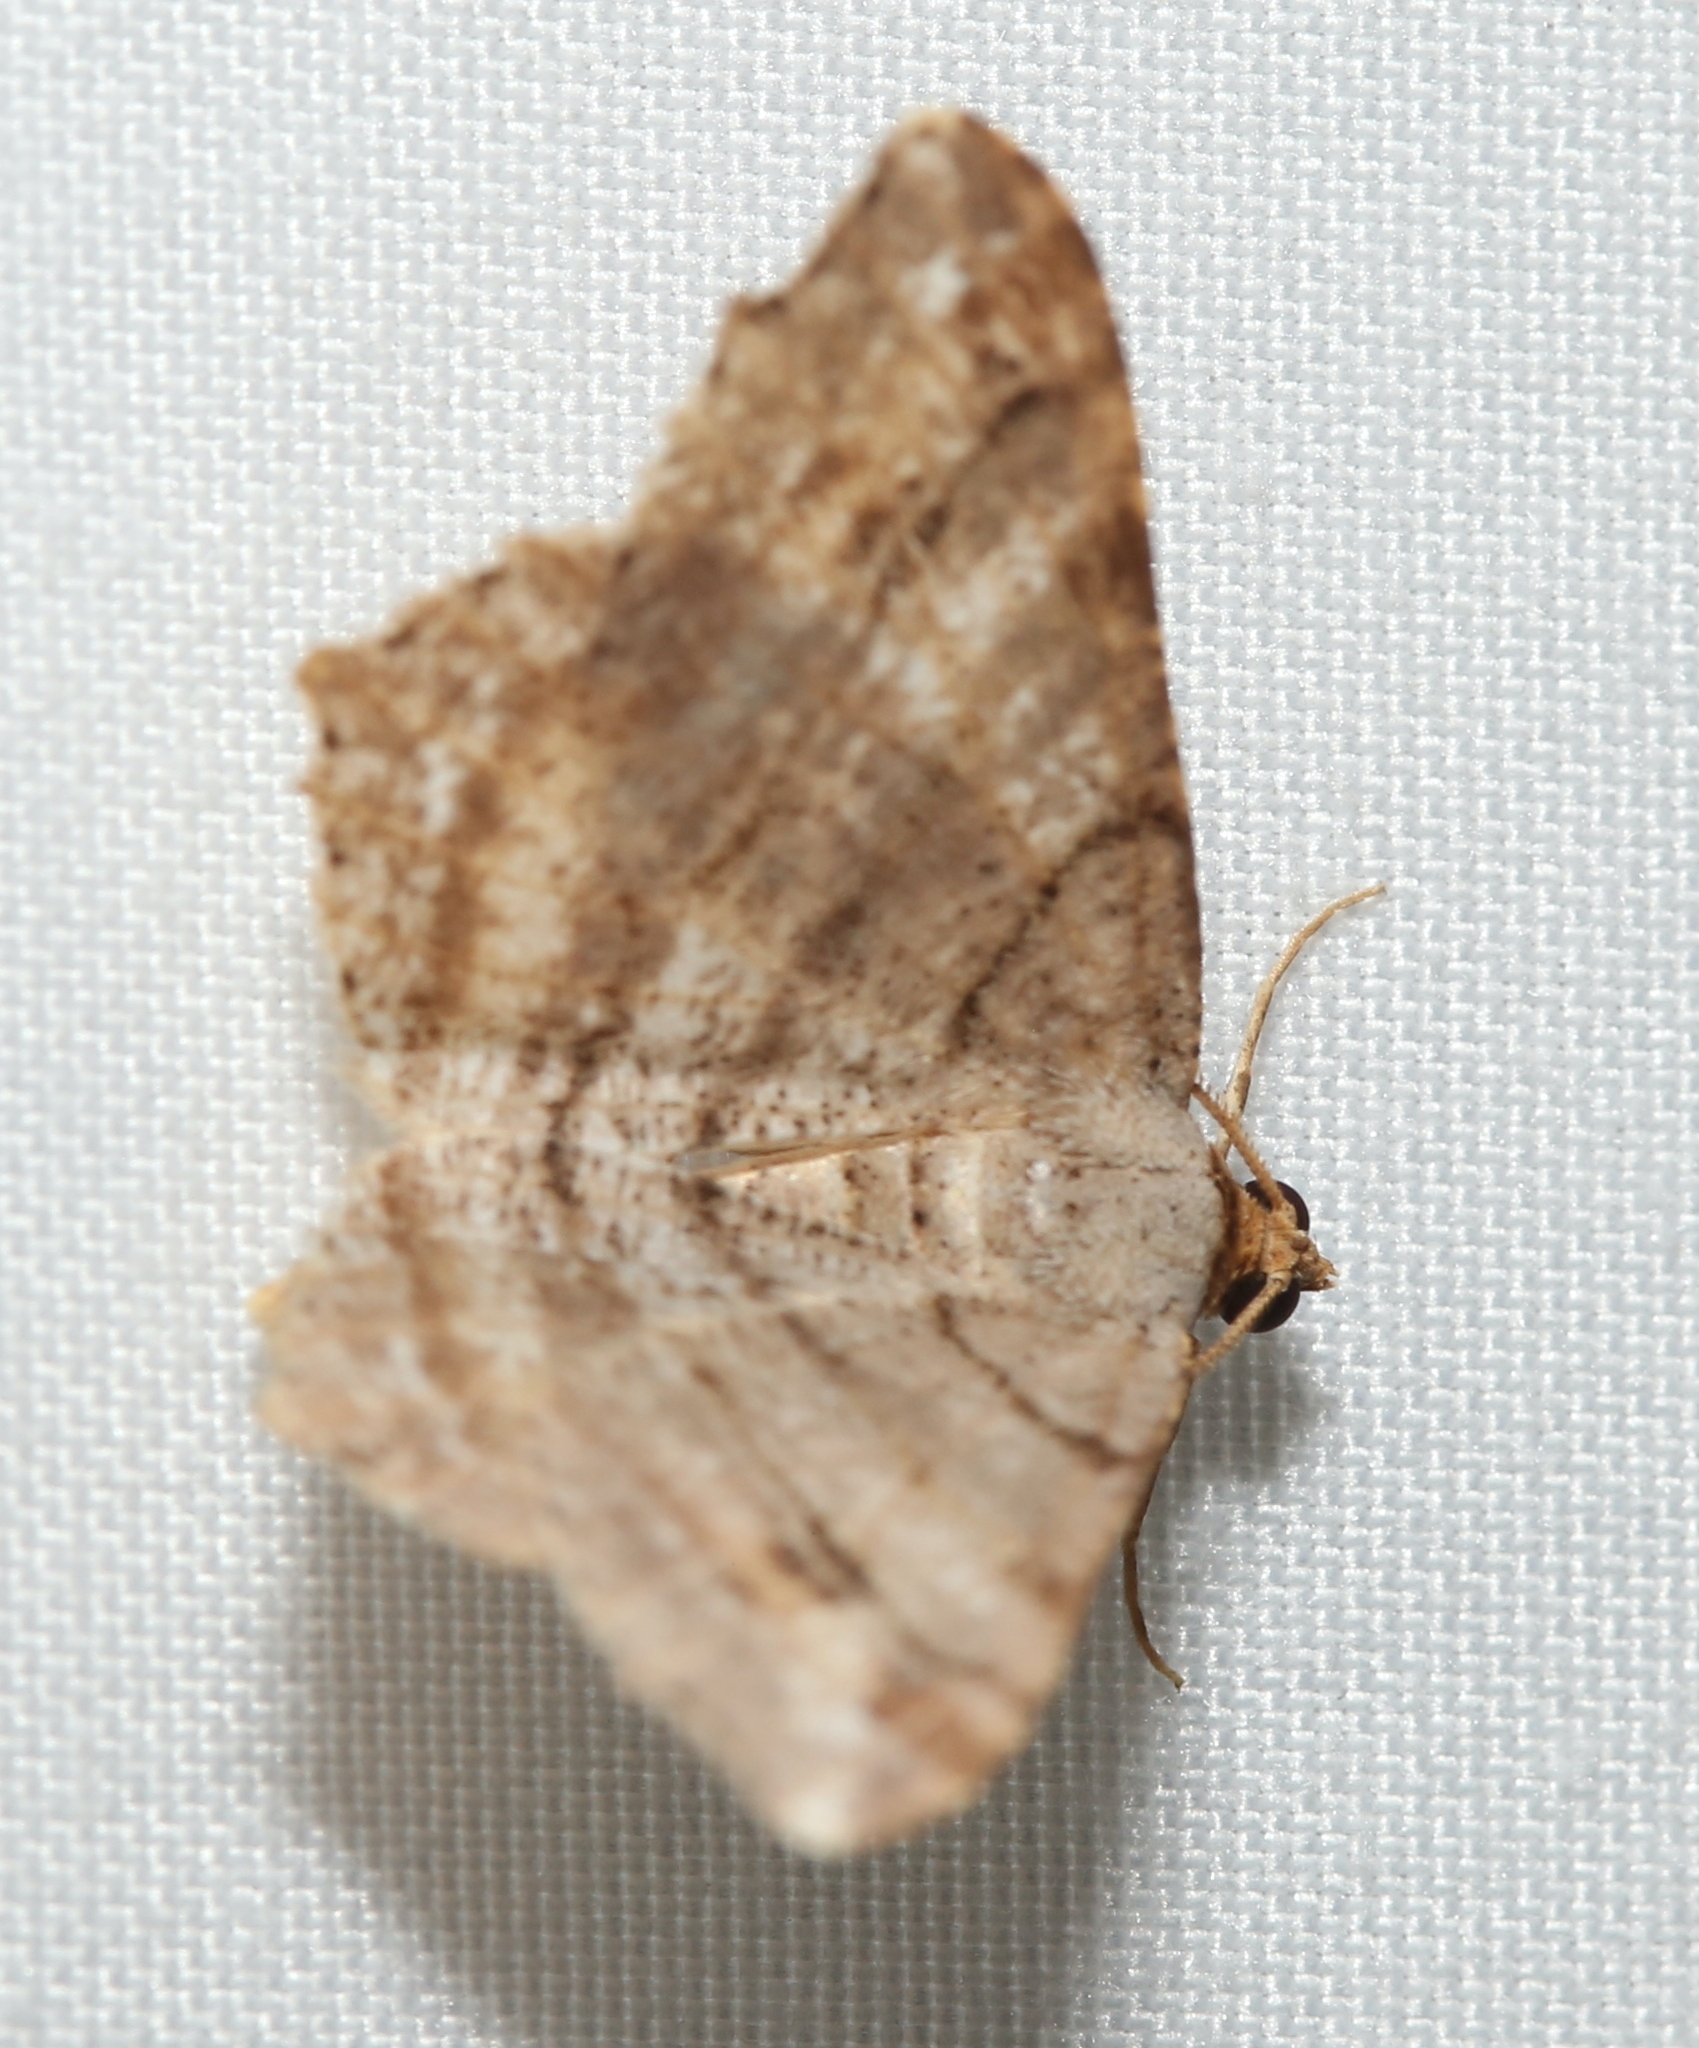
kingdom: Animalia
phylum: Arthropoda
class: Insecta
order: Lepidoptera
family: Geometridae
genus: Macaria
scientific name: Macaria multilineata
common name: Many-lined angle
